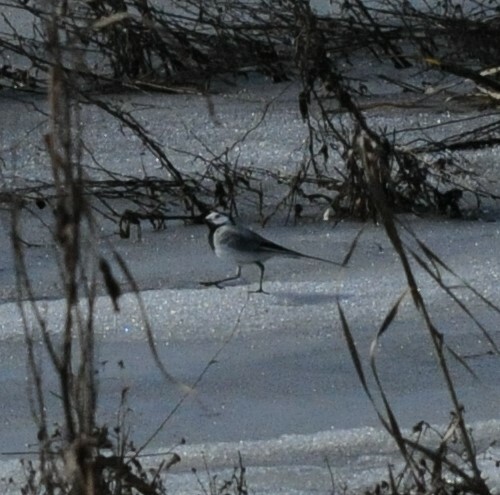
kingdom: Animalia
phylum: Chordata
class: Aves
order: Passeriformes
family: Motacillidae
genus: Motacilla
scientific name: Motacilla alba
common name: White wagtail
